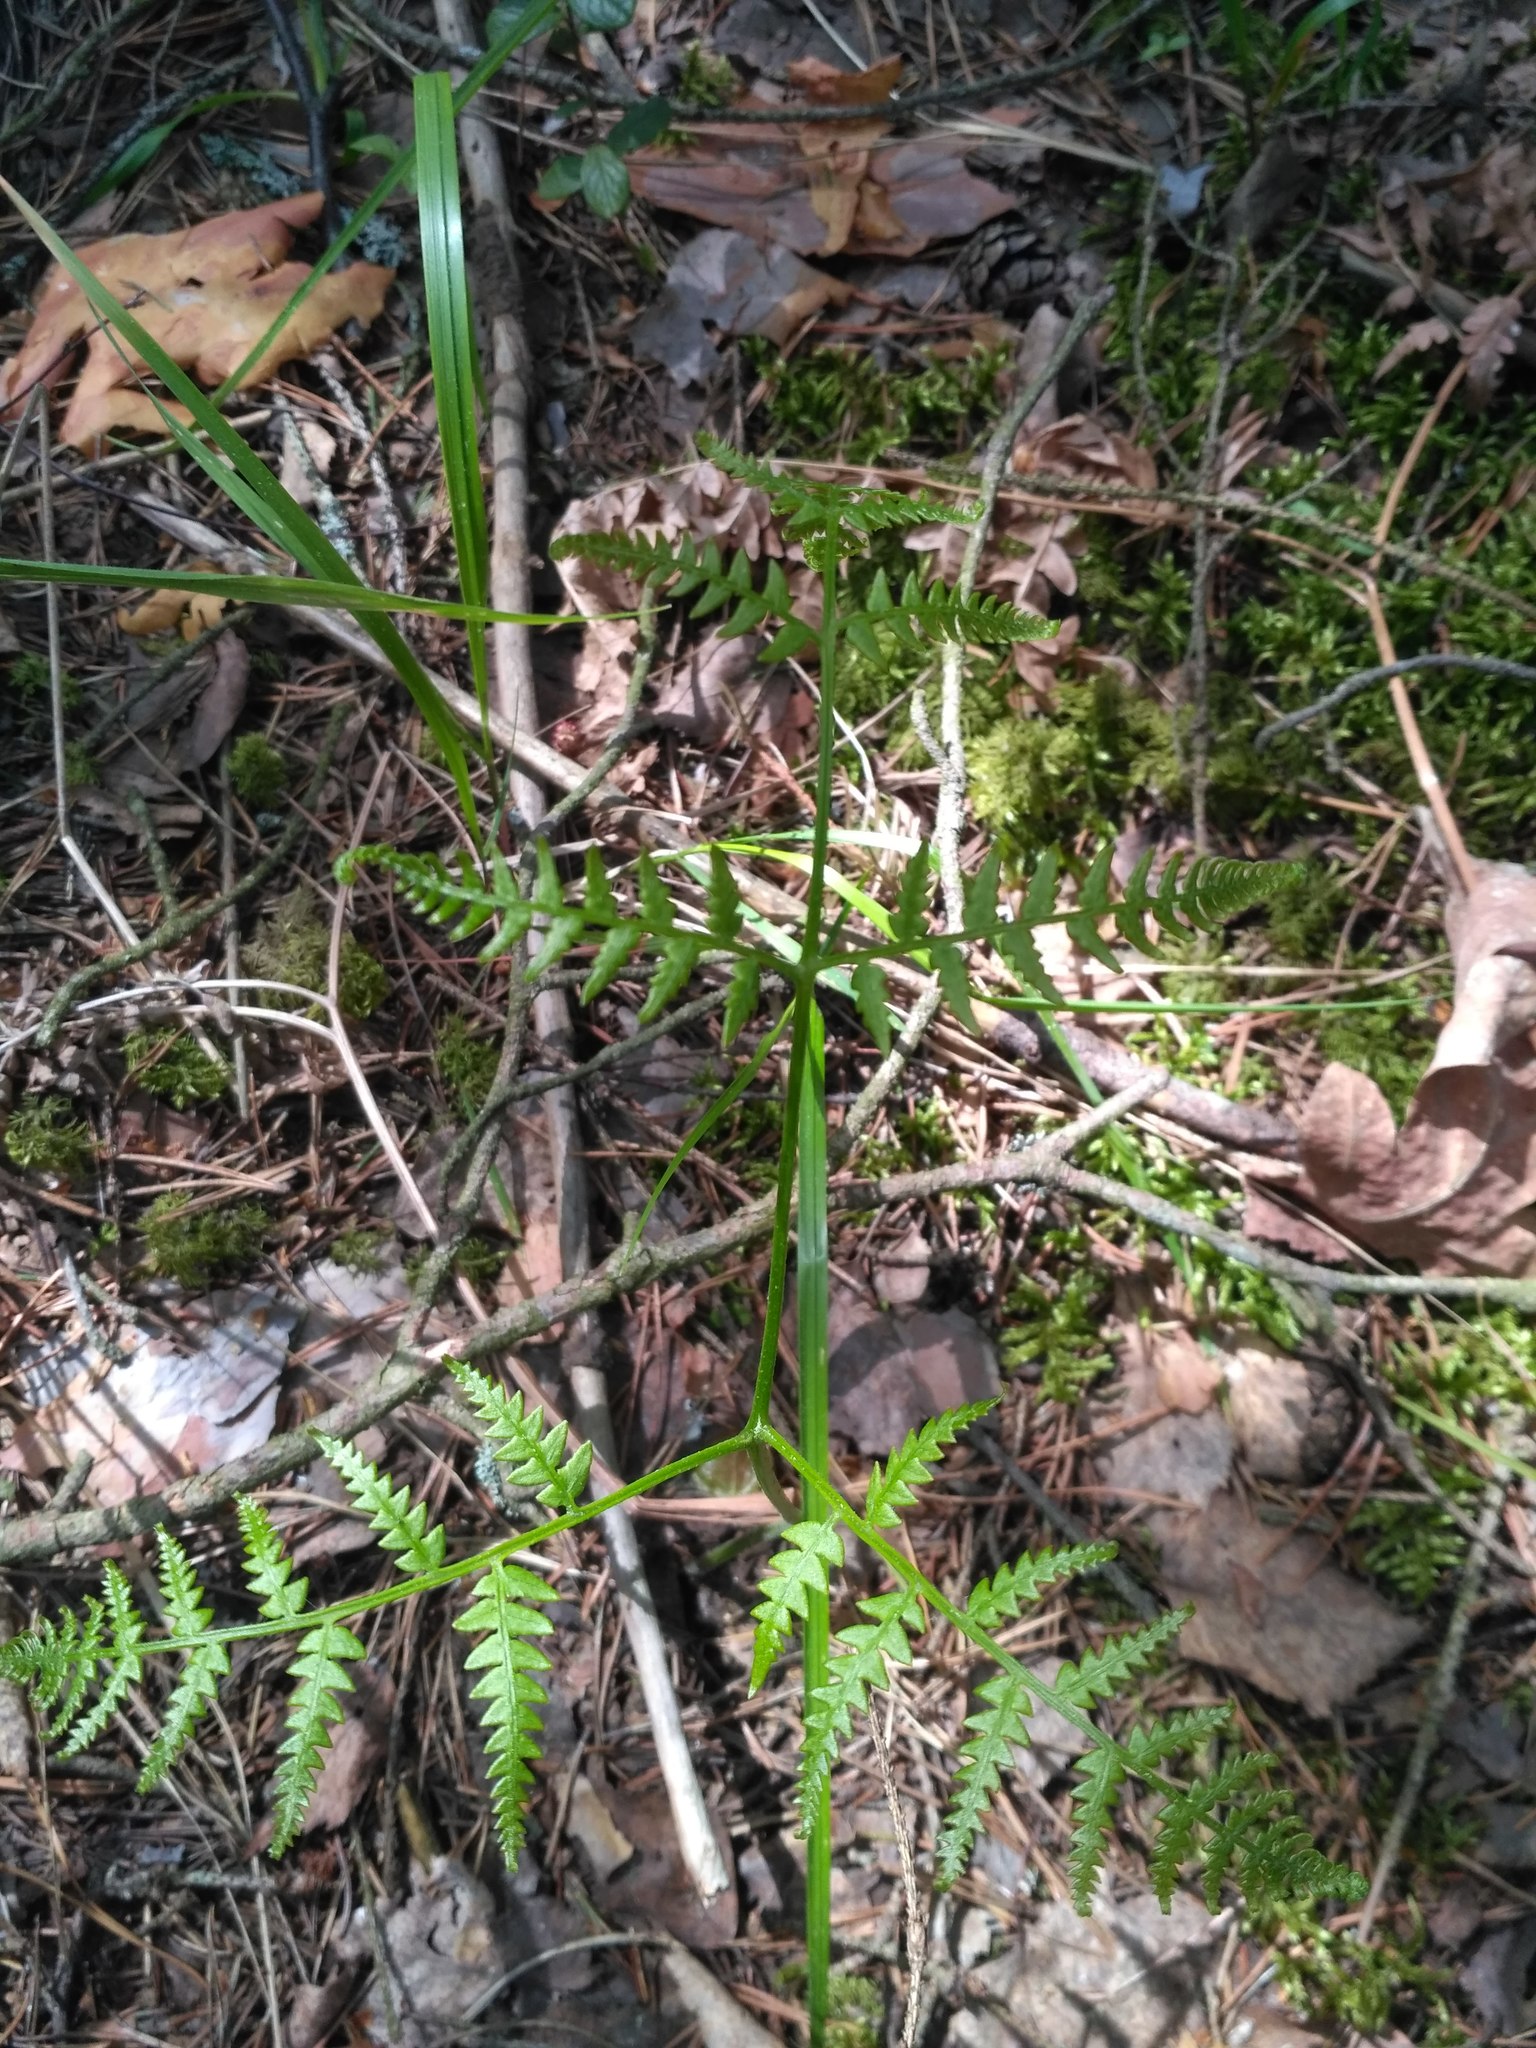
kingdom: Plantae
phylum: Tracheophyta
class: Polypodiopsida
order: Polypodiales
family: Dennstaedtiaceae
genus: Pteridium
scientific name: Pteridium aquilinum
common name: Bracken
